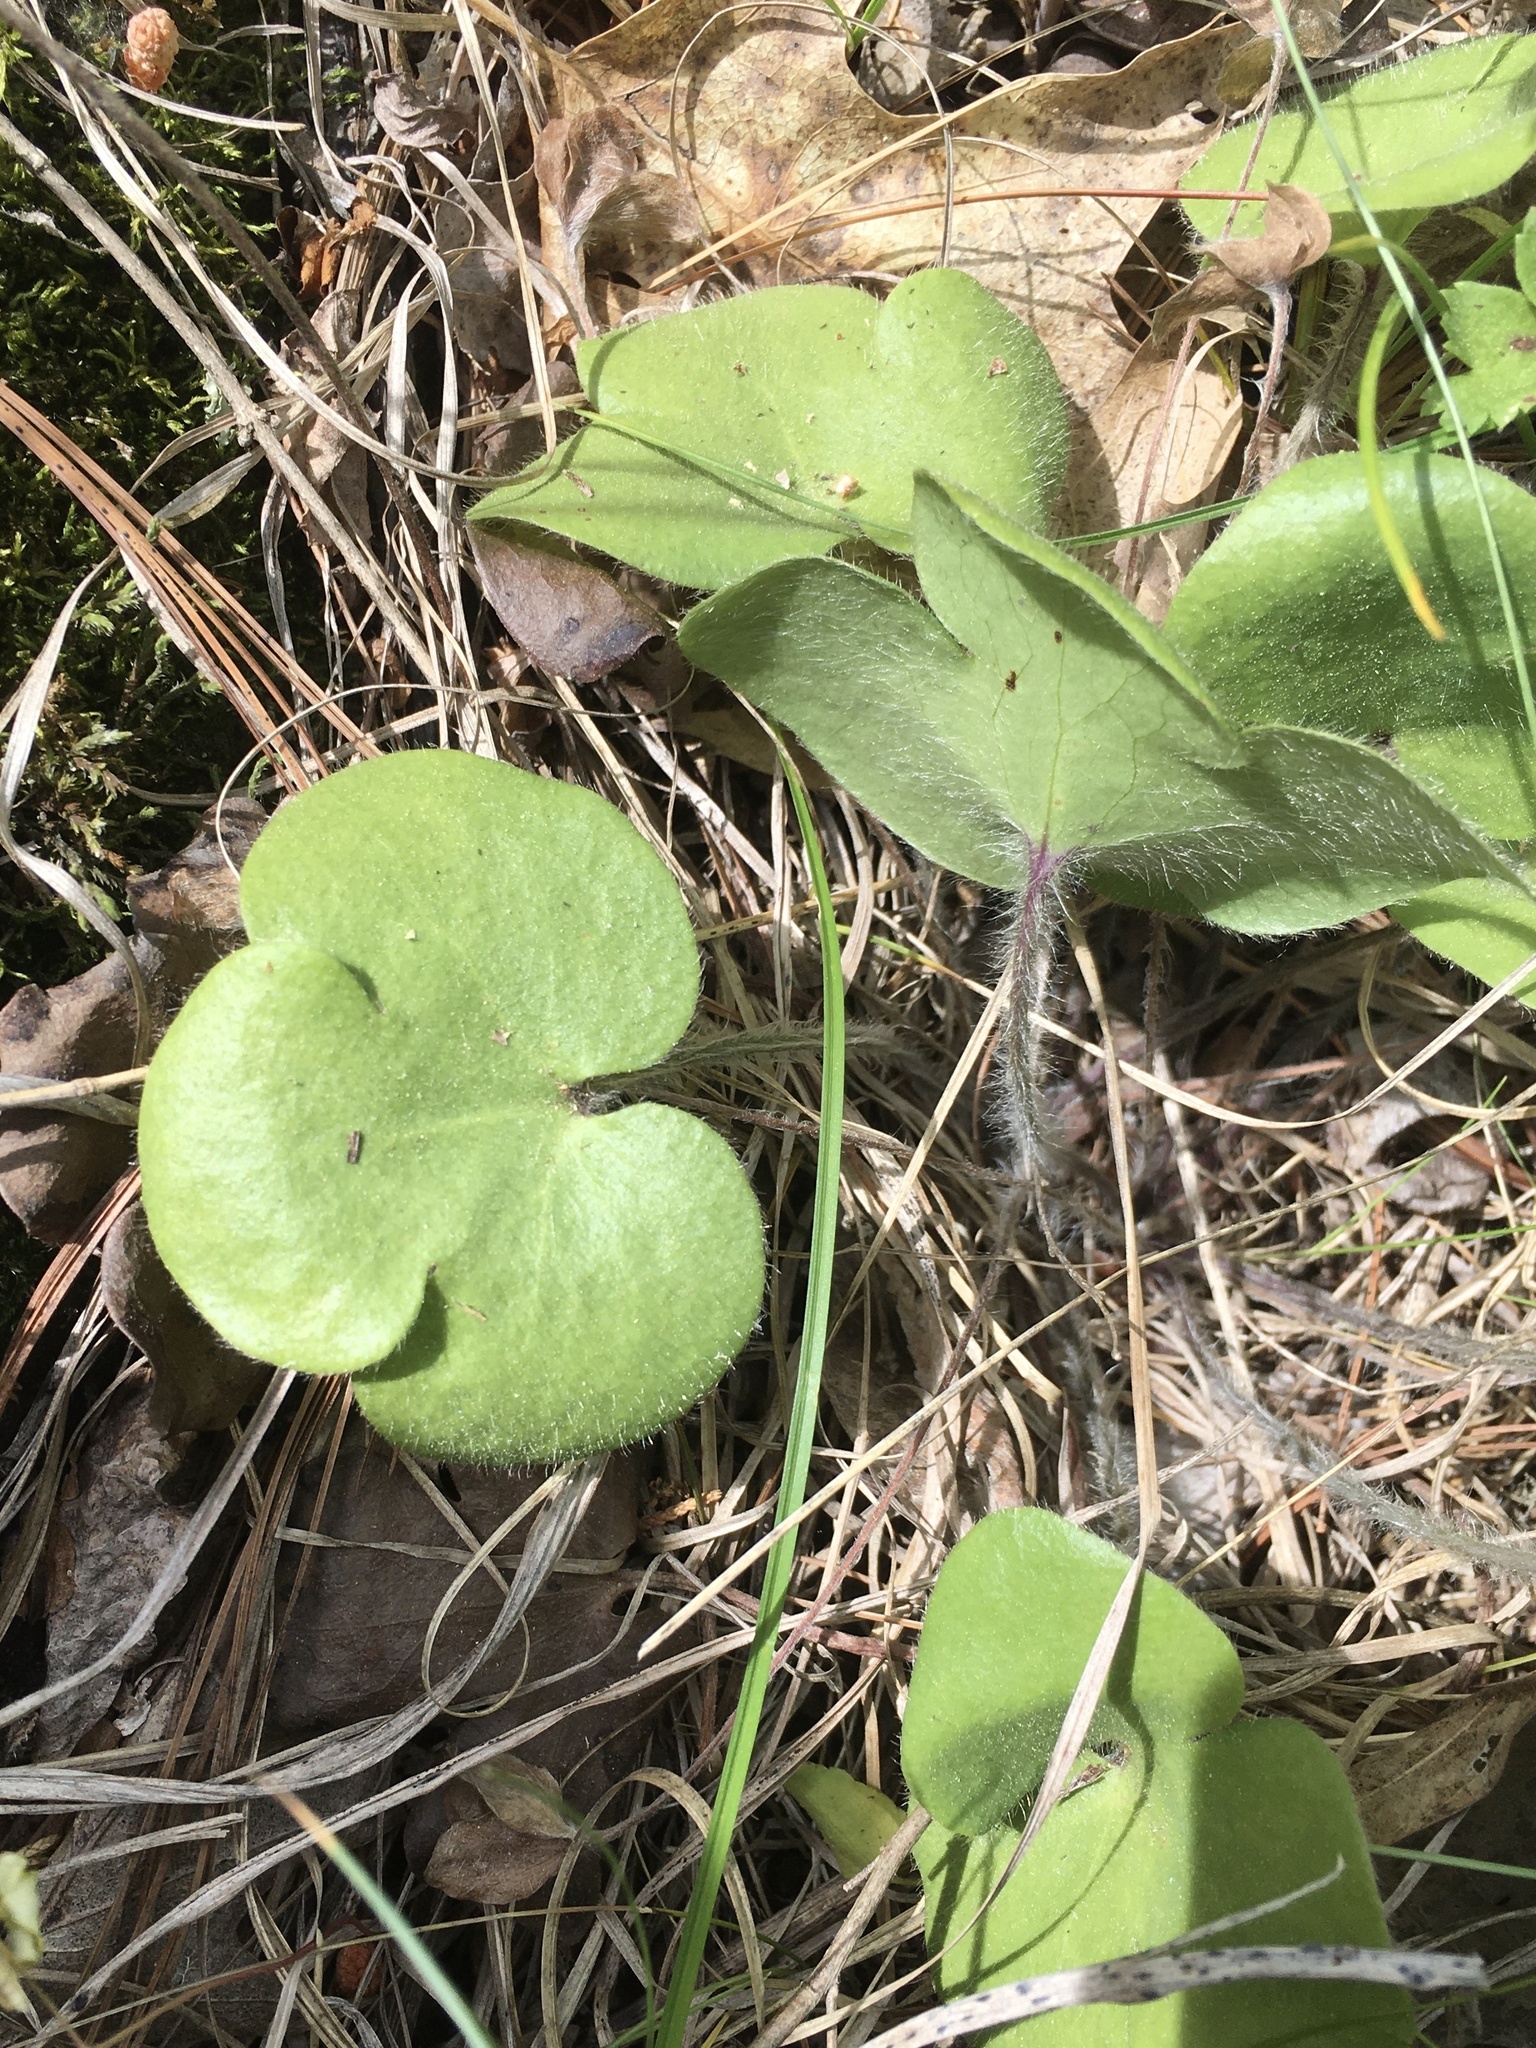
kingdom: Plantae
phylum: Tracheophyta
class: Magnoliopsida
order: Ranunculales
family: Ranunculaceae
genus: Hepatica
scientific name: Hepatica americana
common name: American hepatica
